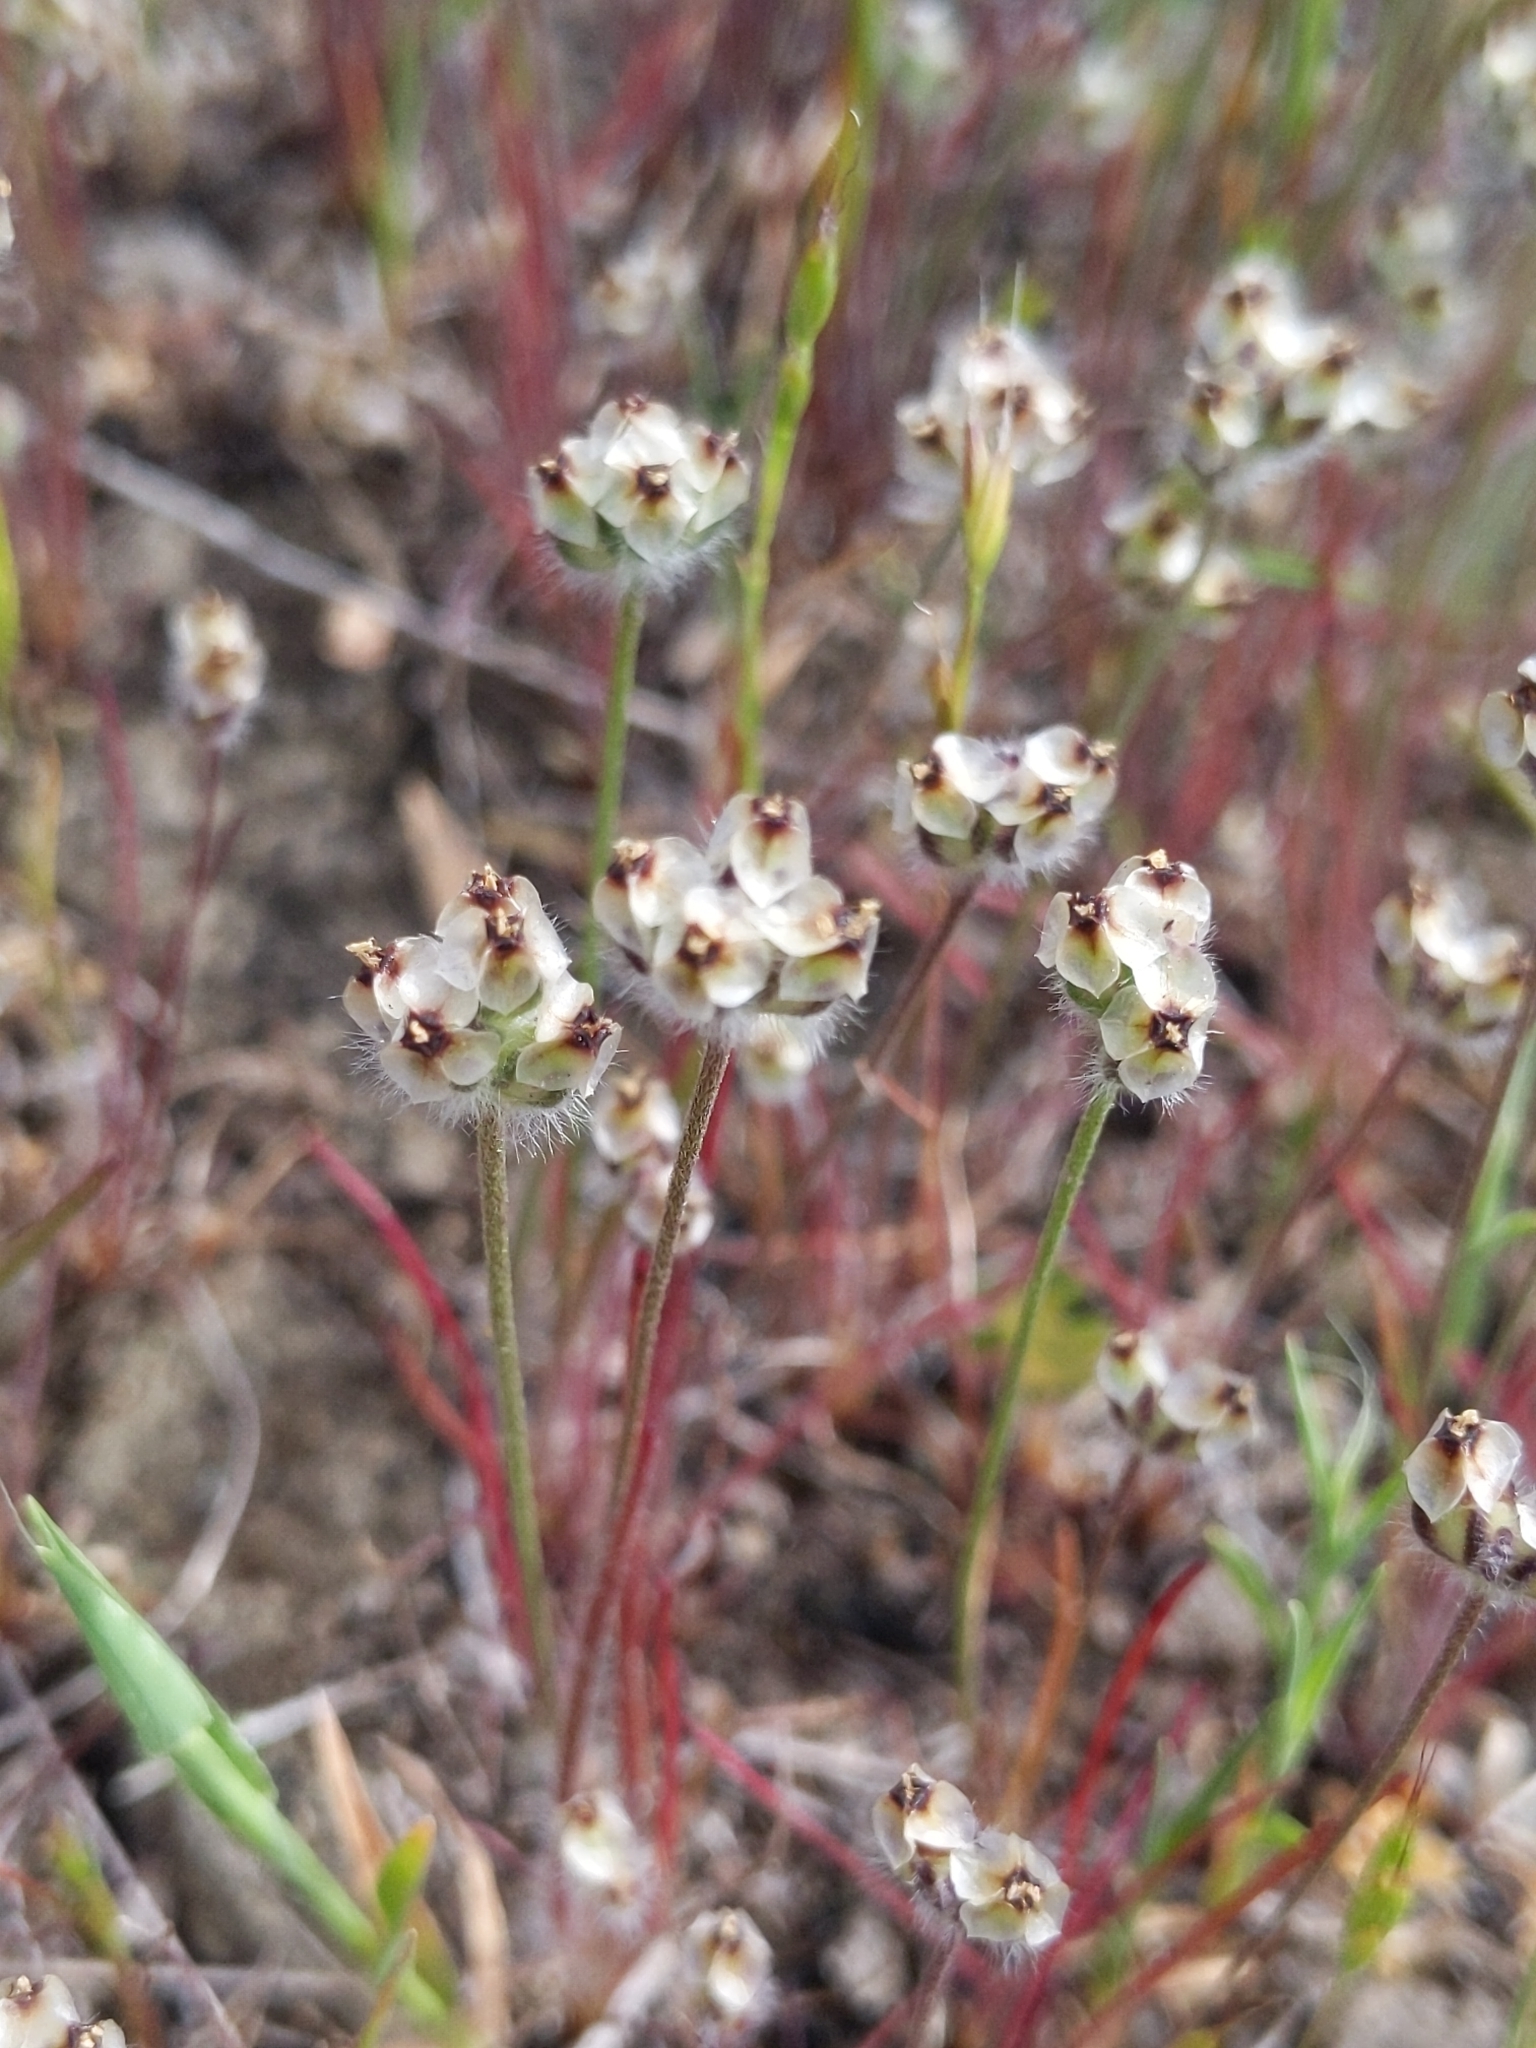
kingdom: Plantae
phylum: Tracheophyta
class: Magnoliopsida
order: Lamiales
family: Plantaginaceae
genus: Plantago
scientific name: Plantago erecta
